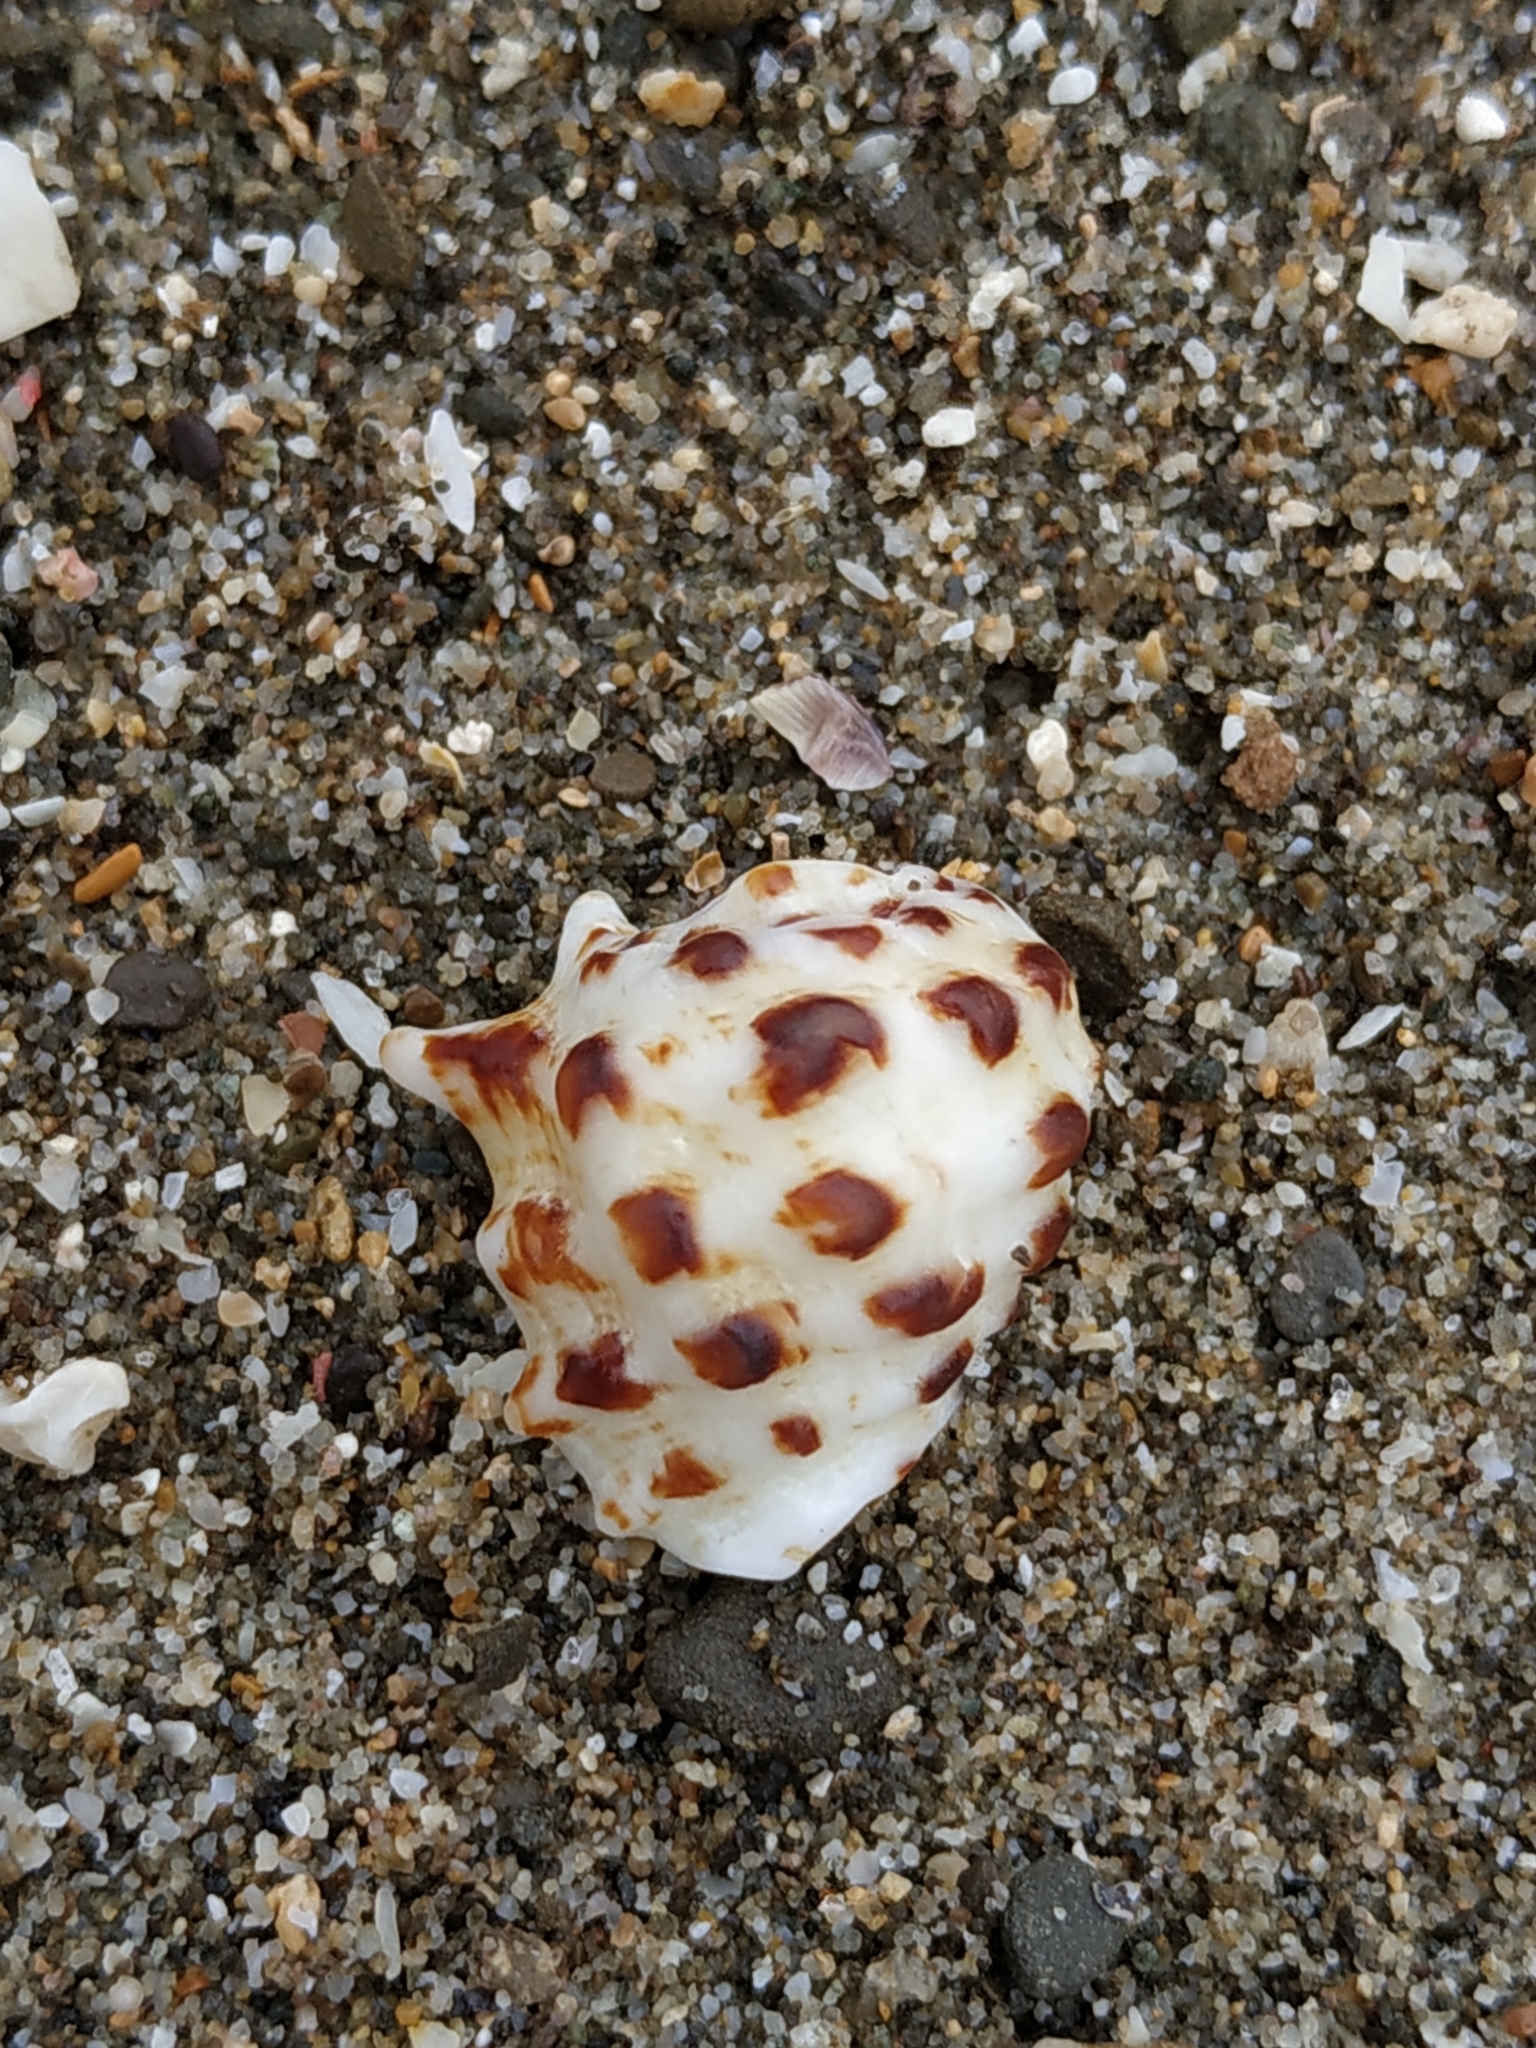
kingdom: Animalia
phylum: Mollusca
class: Gastropoda
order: Neogastropoda
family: Muricidae
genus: Drupa
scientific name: Drupa morum
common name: Purple drupe
